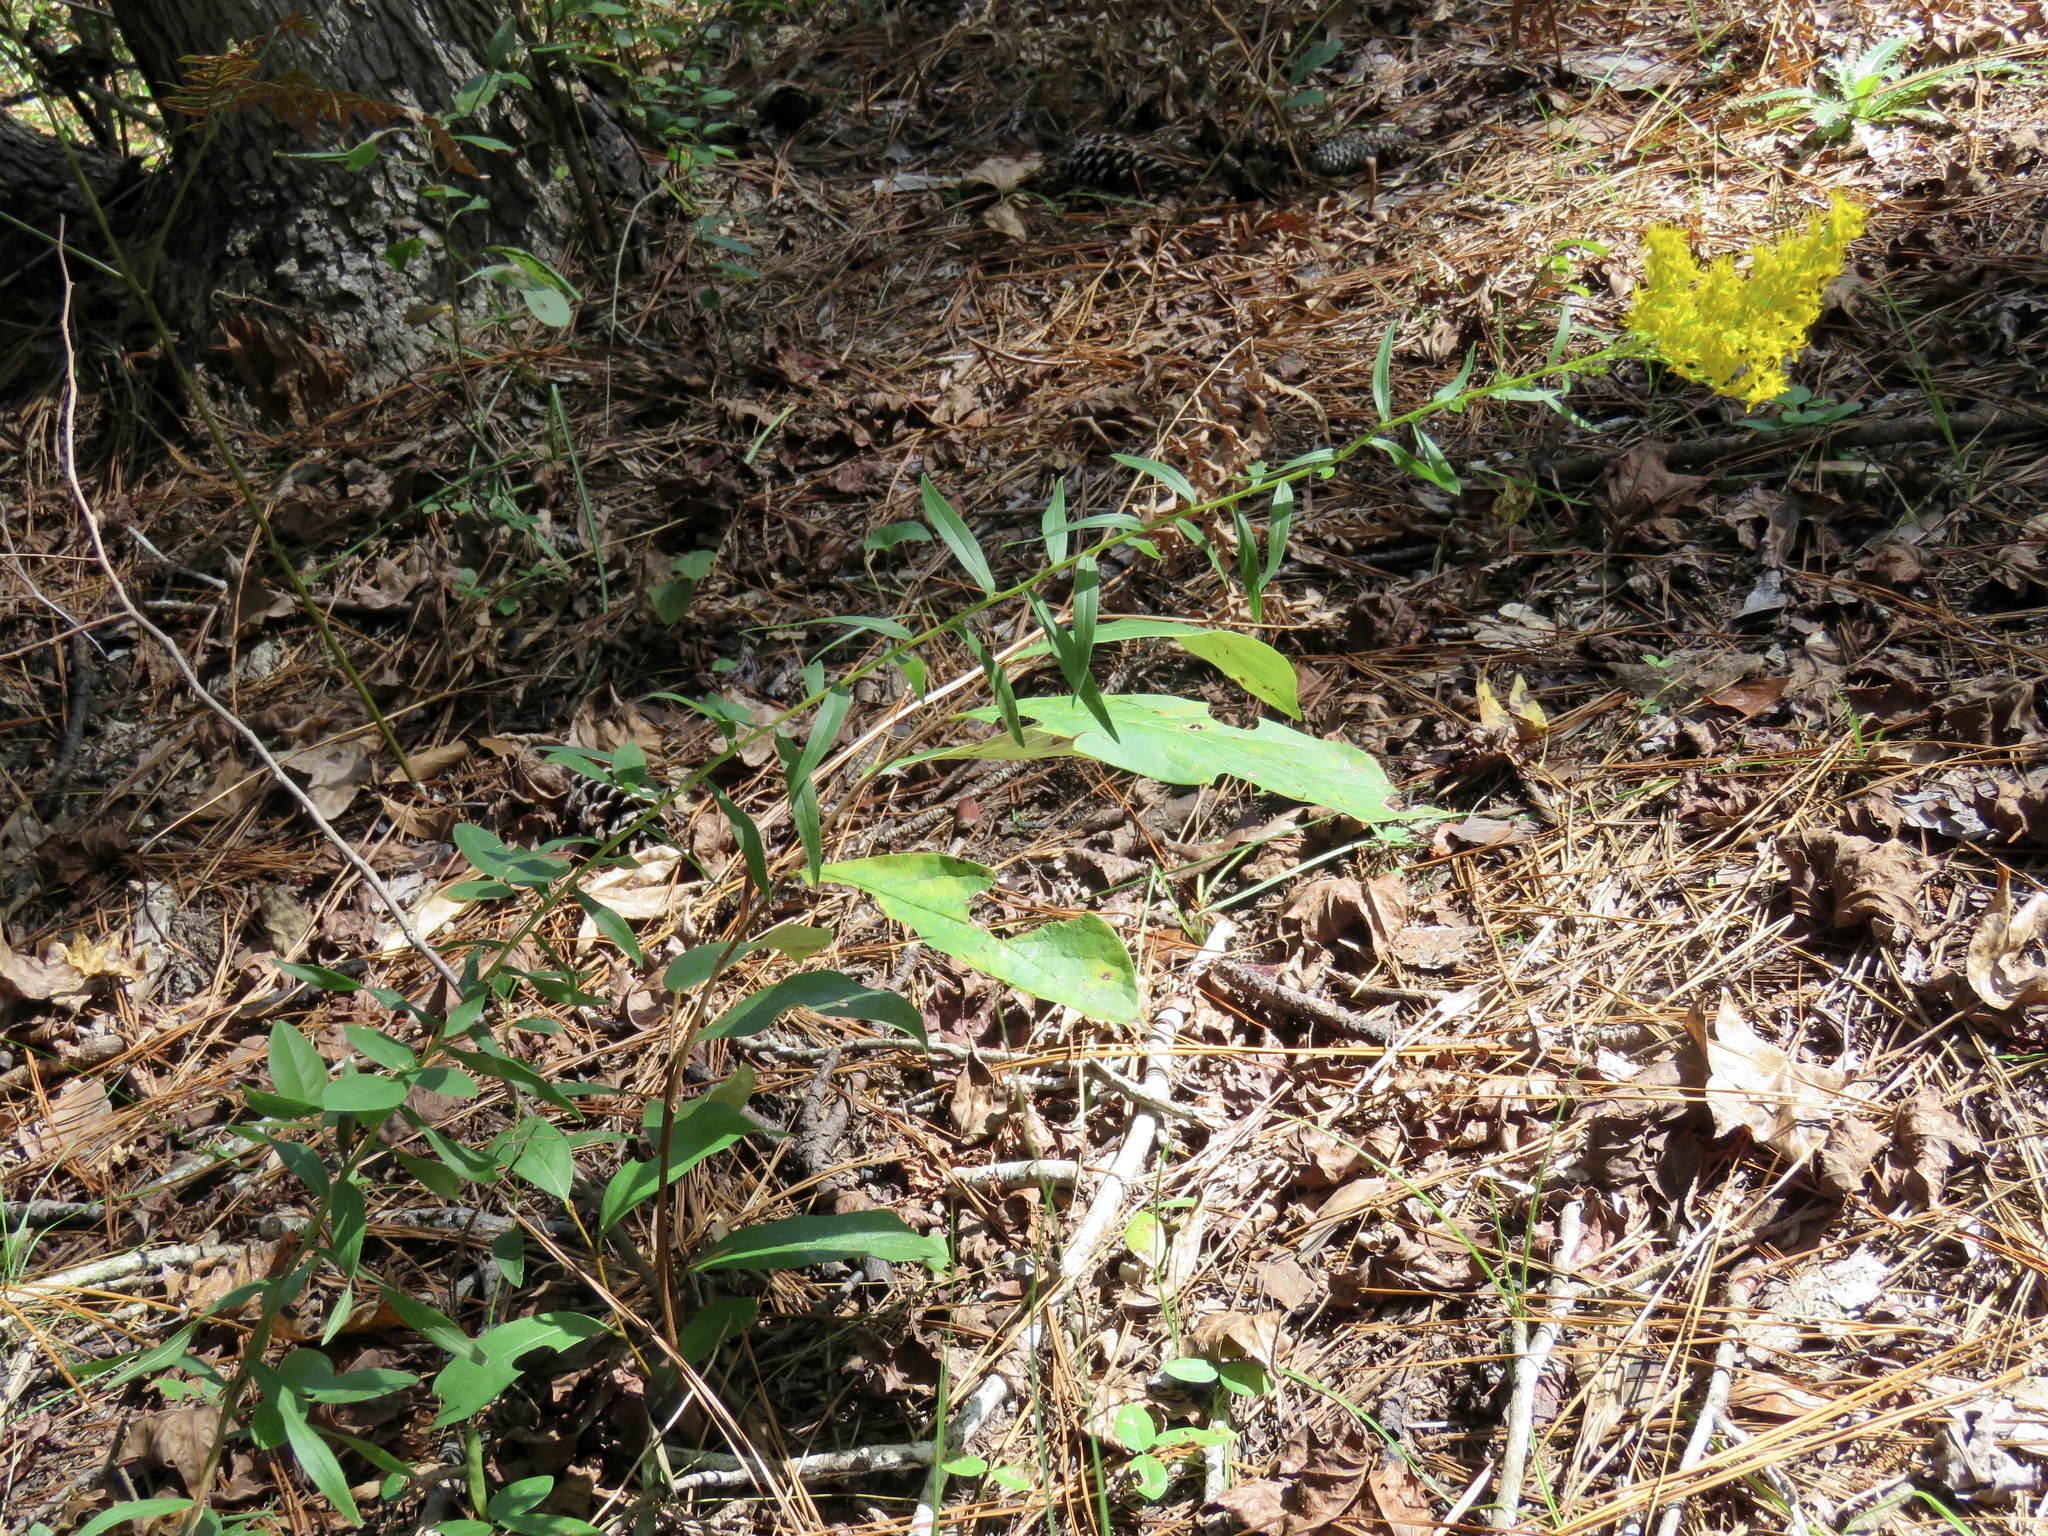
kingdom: Plantae
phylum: Tracheophyta
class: Magnoliopsida
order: Asterales
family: Asteraceae
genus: Solidago
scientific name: Solidago odora
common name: Anise-scented goldenrod
